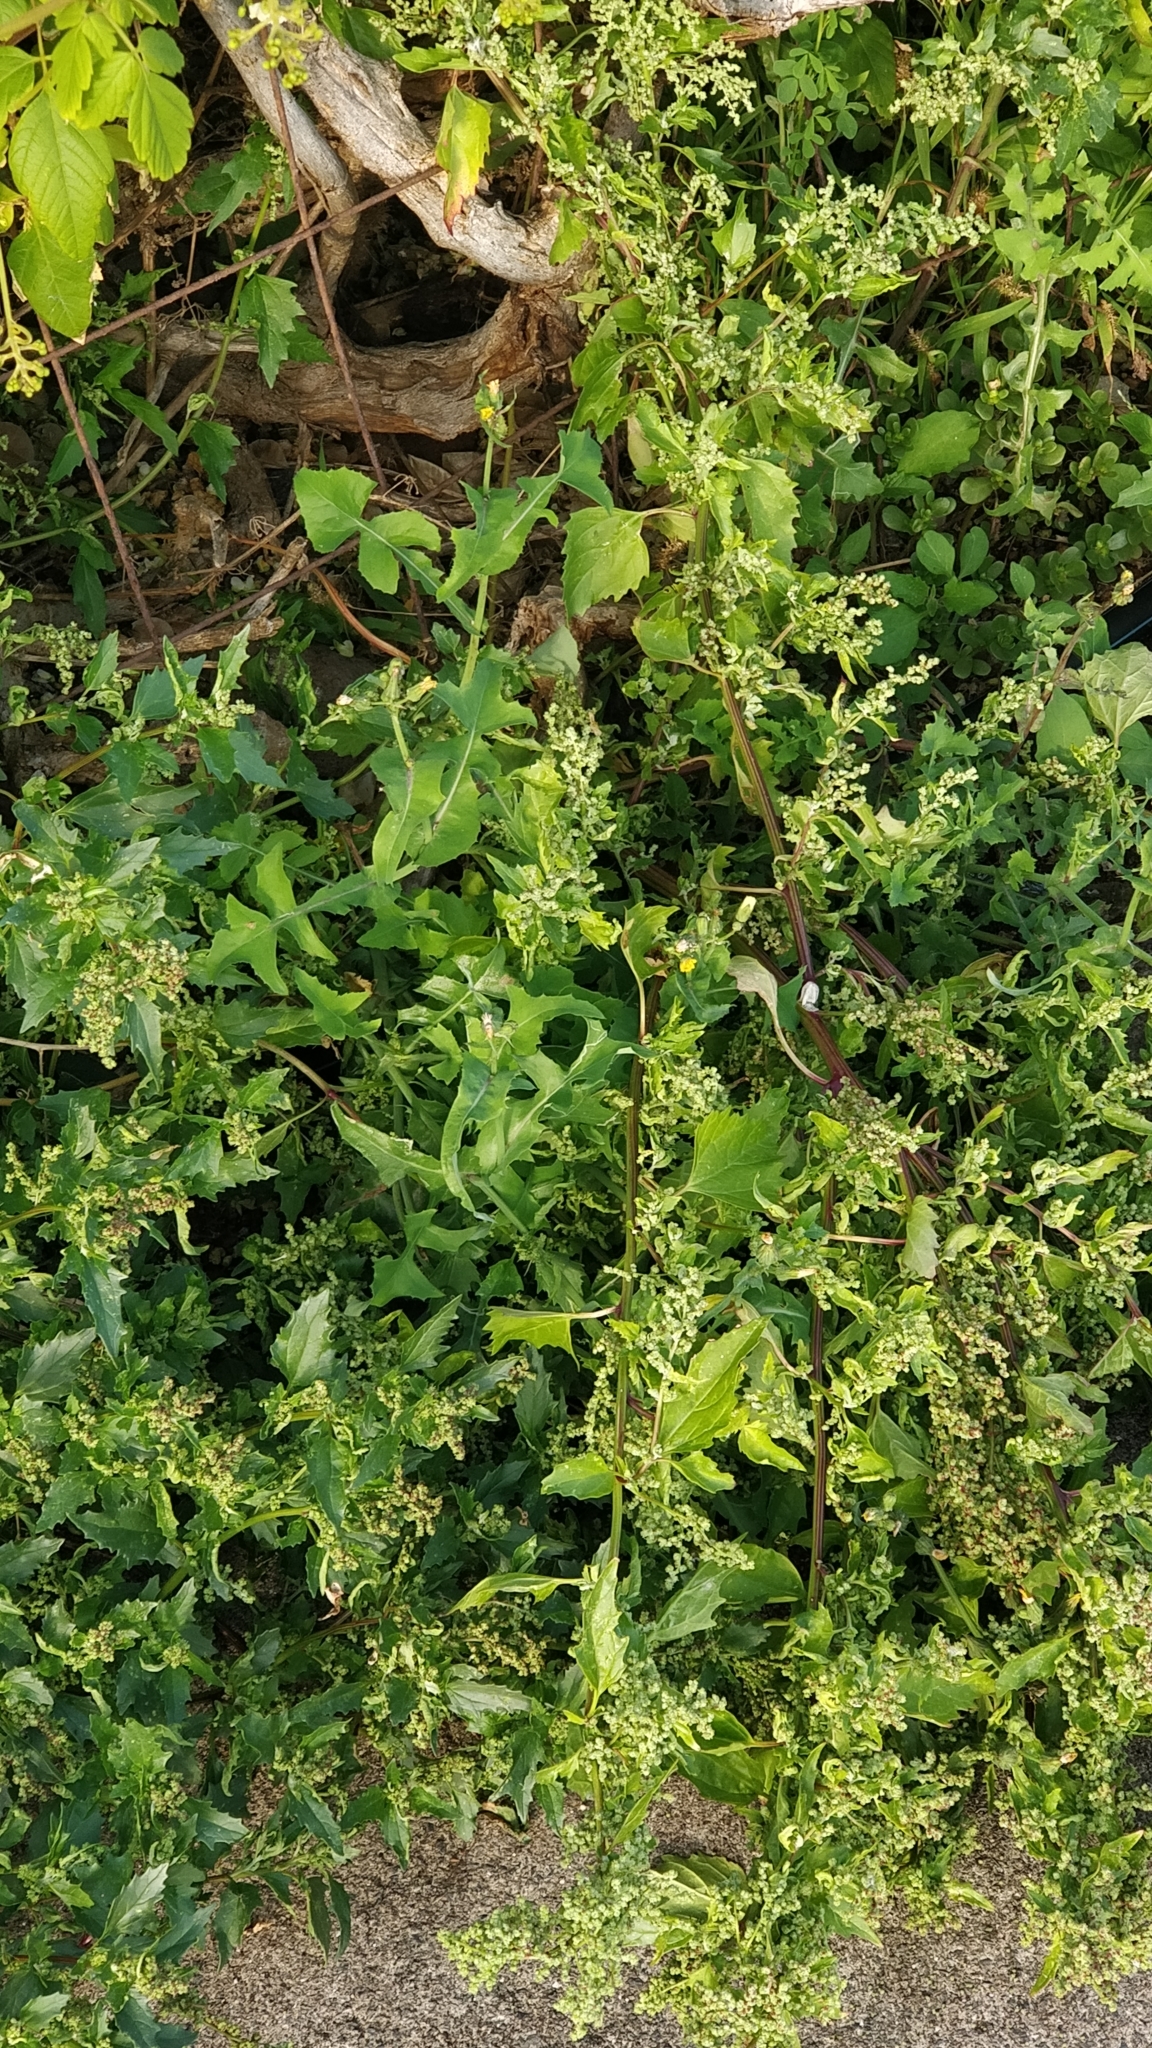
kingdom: Plantae
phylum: Tracheophyta
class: Magnoliopsida
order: Caryophyllales
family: Amaranthaceae
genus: Chenopodiastrum
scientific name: Chenopodiastrum murale
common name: Sowbane
